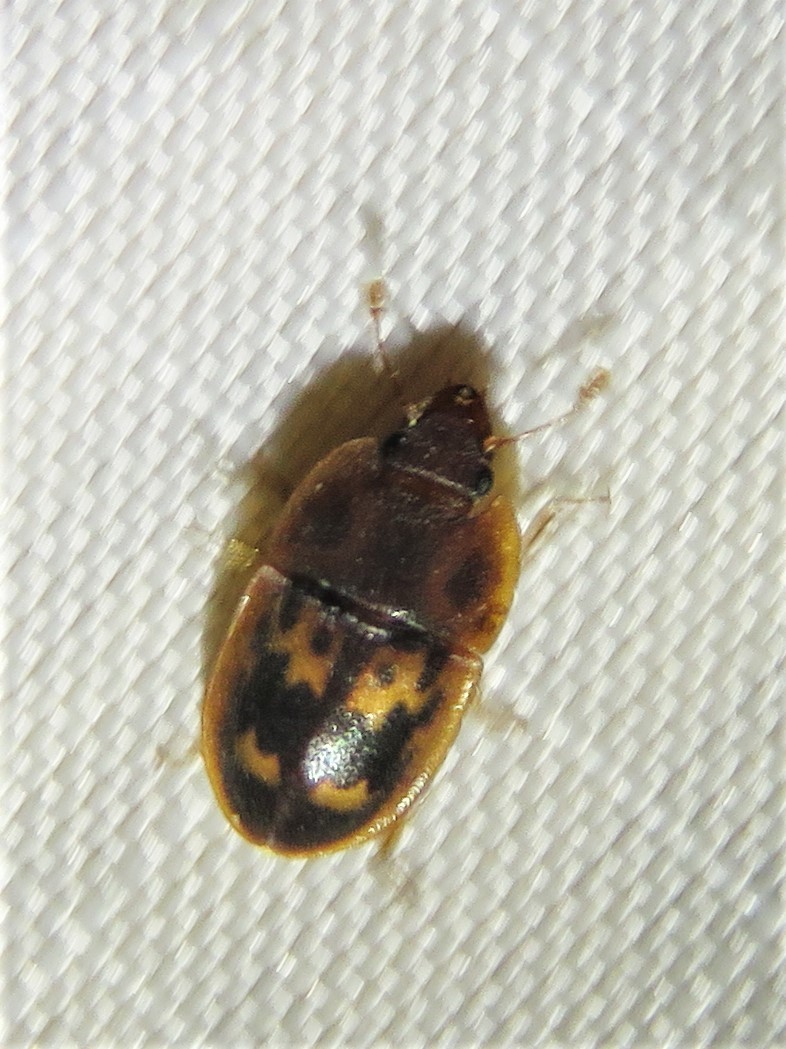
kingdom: Animalia
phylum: Arthropoda
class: Insecta
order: Coleoptera
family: Nitidulidae
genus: Prometopia
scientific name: Prometopia sexmaculata
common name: Six-spotted sap-feeding beetle
